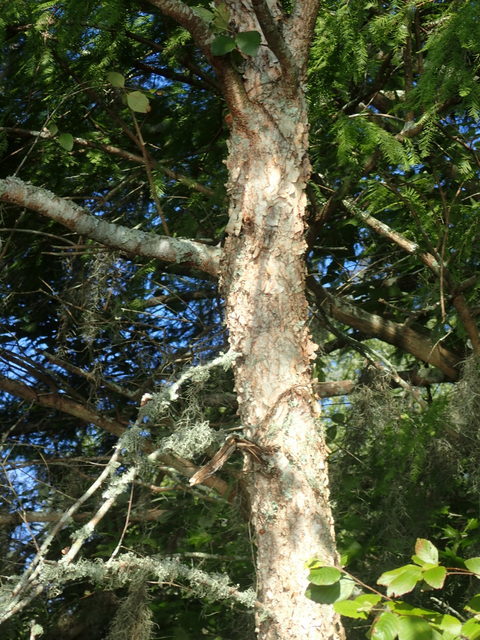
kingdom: Plantae
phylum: Tracheophyta
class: Magnoliopsida
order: Fagales
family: Betulaceae
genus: Betula
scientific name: Betula nigra
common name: Black birch
